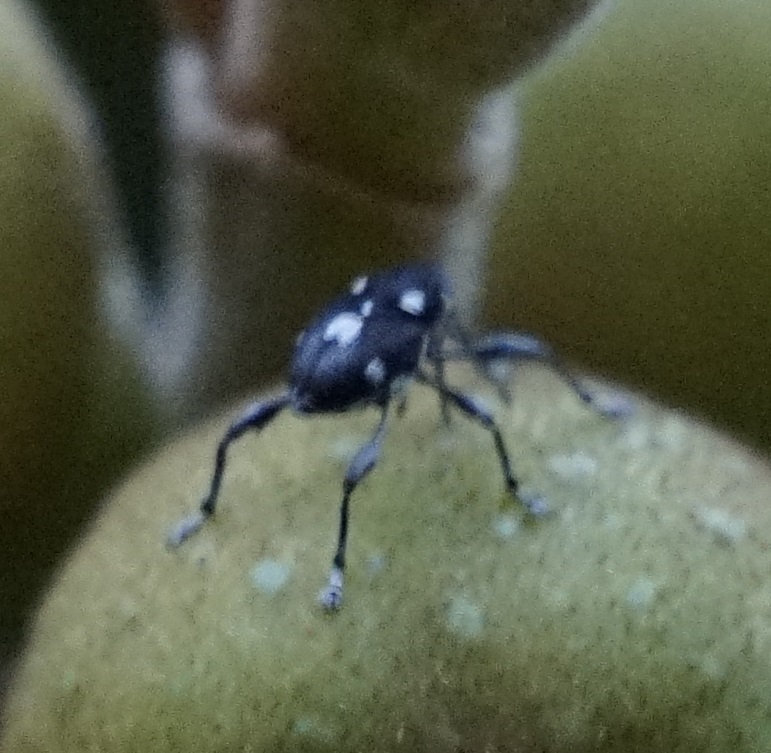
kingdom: Animalia
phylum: Arthropoda
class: Insecta
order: Coleoptera
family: Curculionidae
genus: Curculio
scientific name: Curculio simulator
